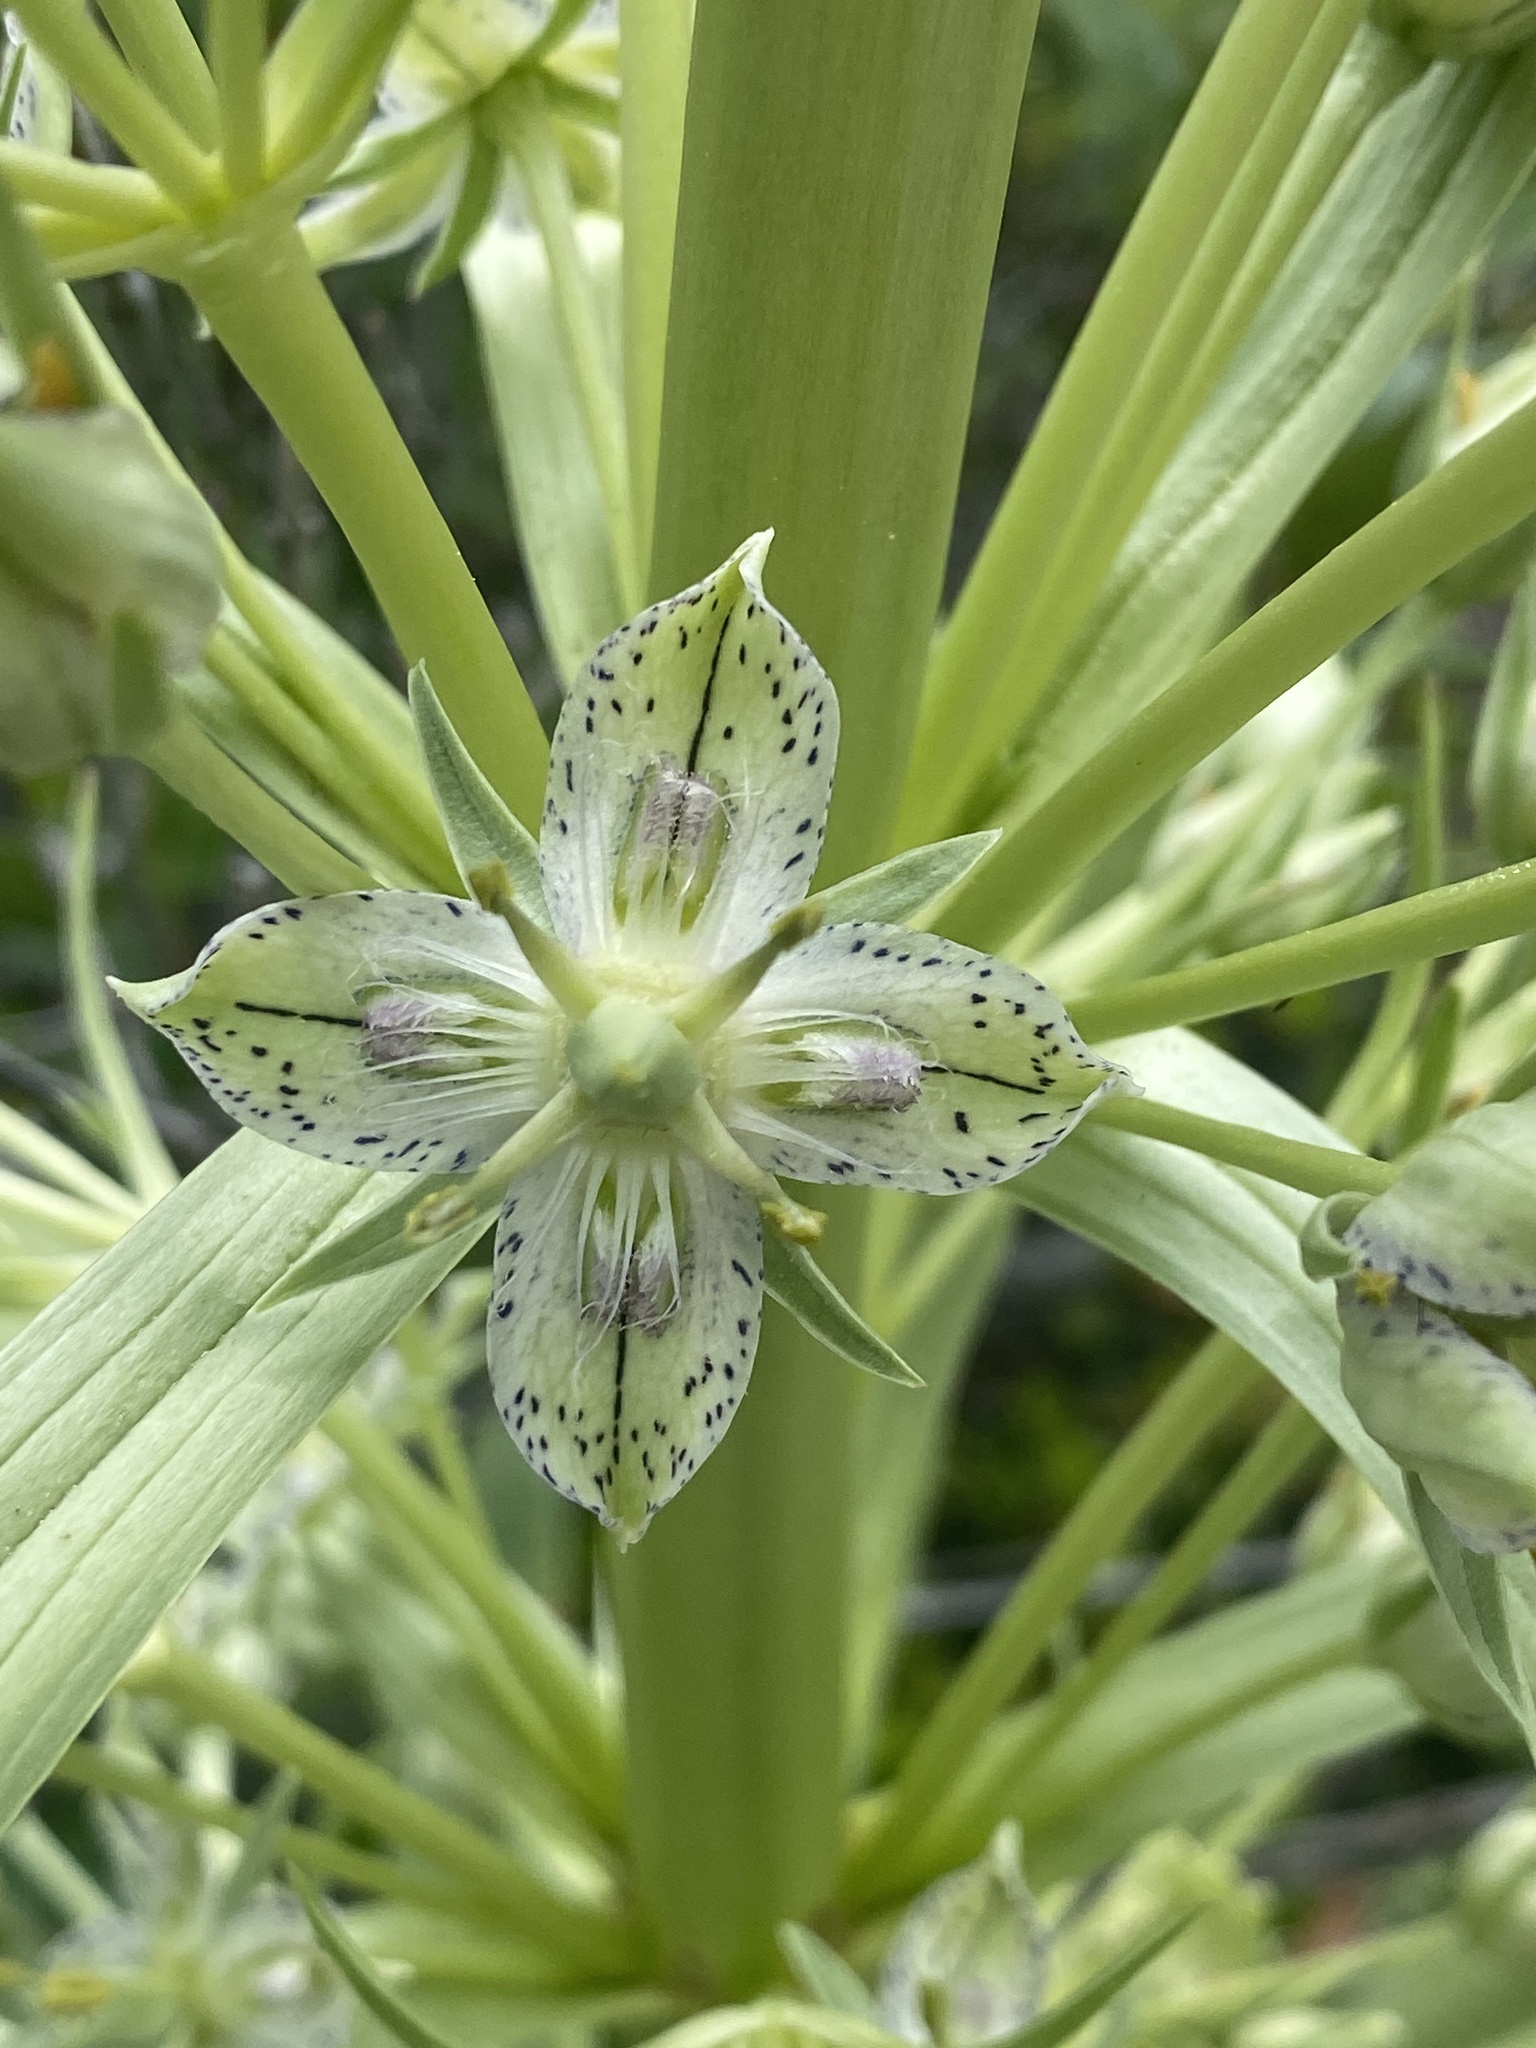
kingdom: Plantae
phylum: Tracheophyta
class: Magnoliopsida
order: Gentianales
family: Gentianaceae
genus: Frasera
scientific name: Frasera speciosa
